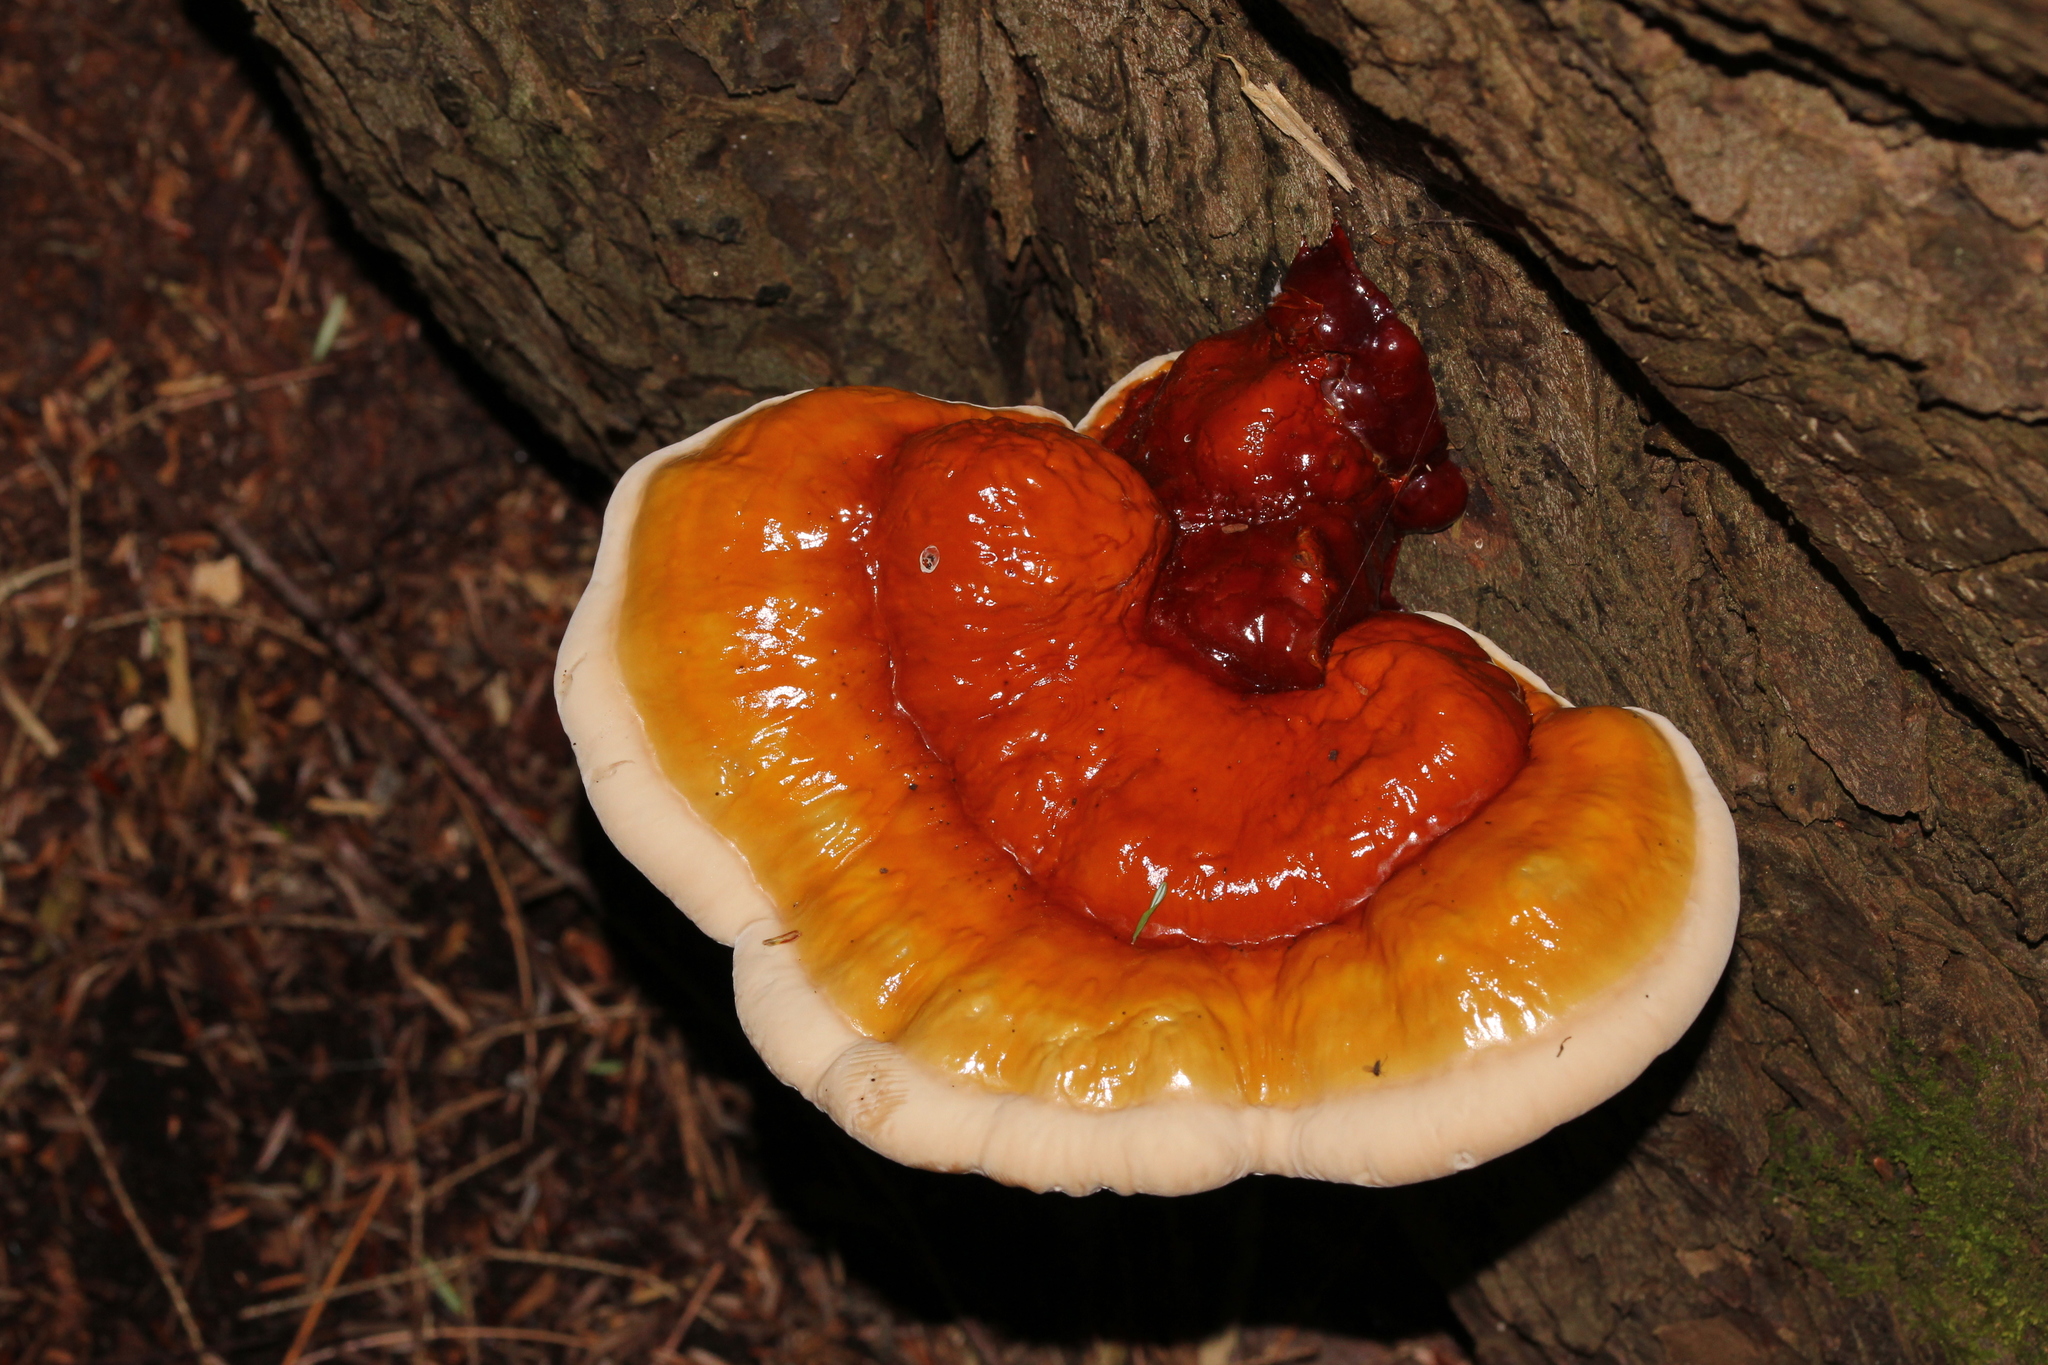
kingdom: Fungi
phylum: Basidiomycota
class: Agaricomycetes
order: Polyporales
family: Polyporaceae
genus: Ganoderma
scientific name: Ganoderma tsugae
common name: Hemlock varnish shelf
